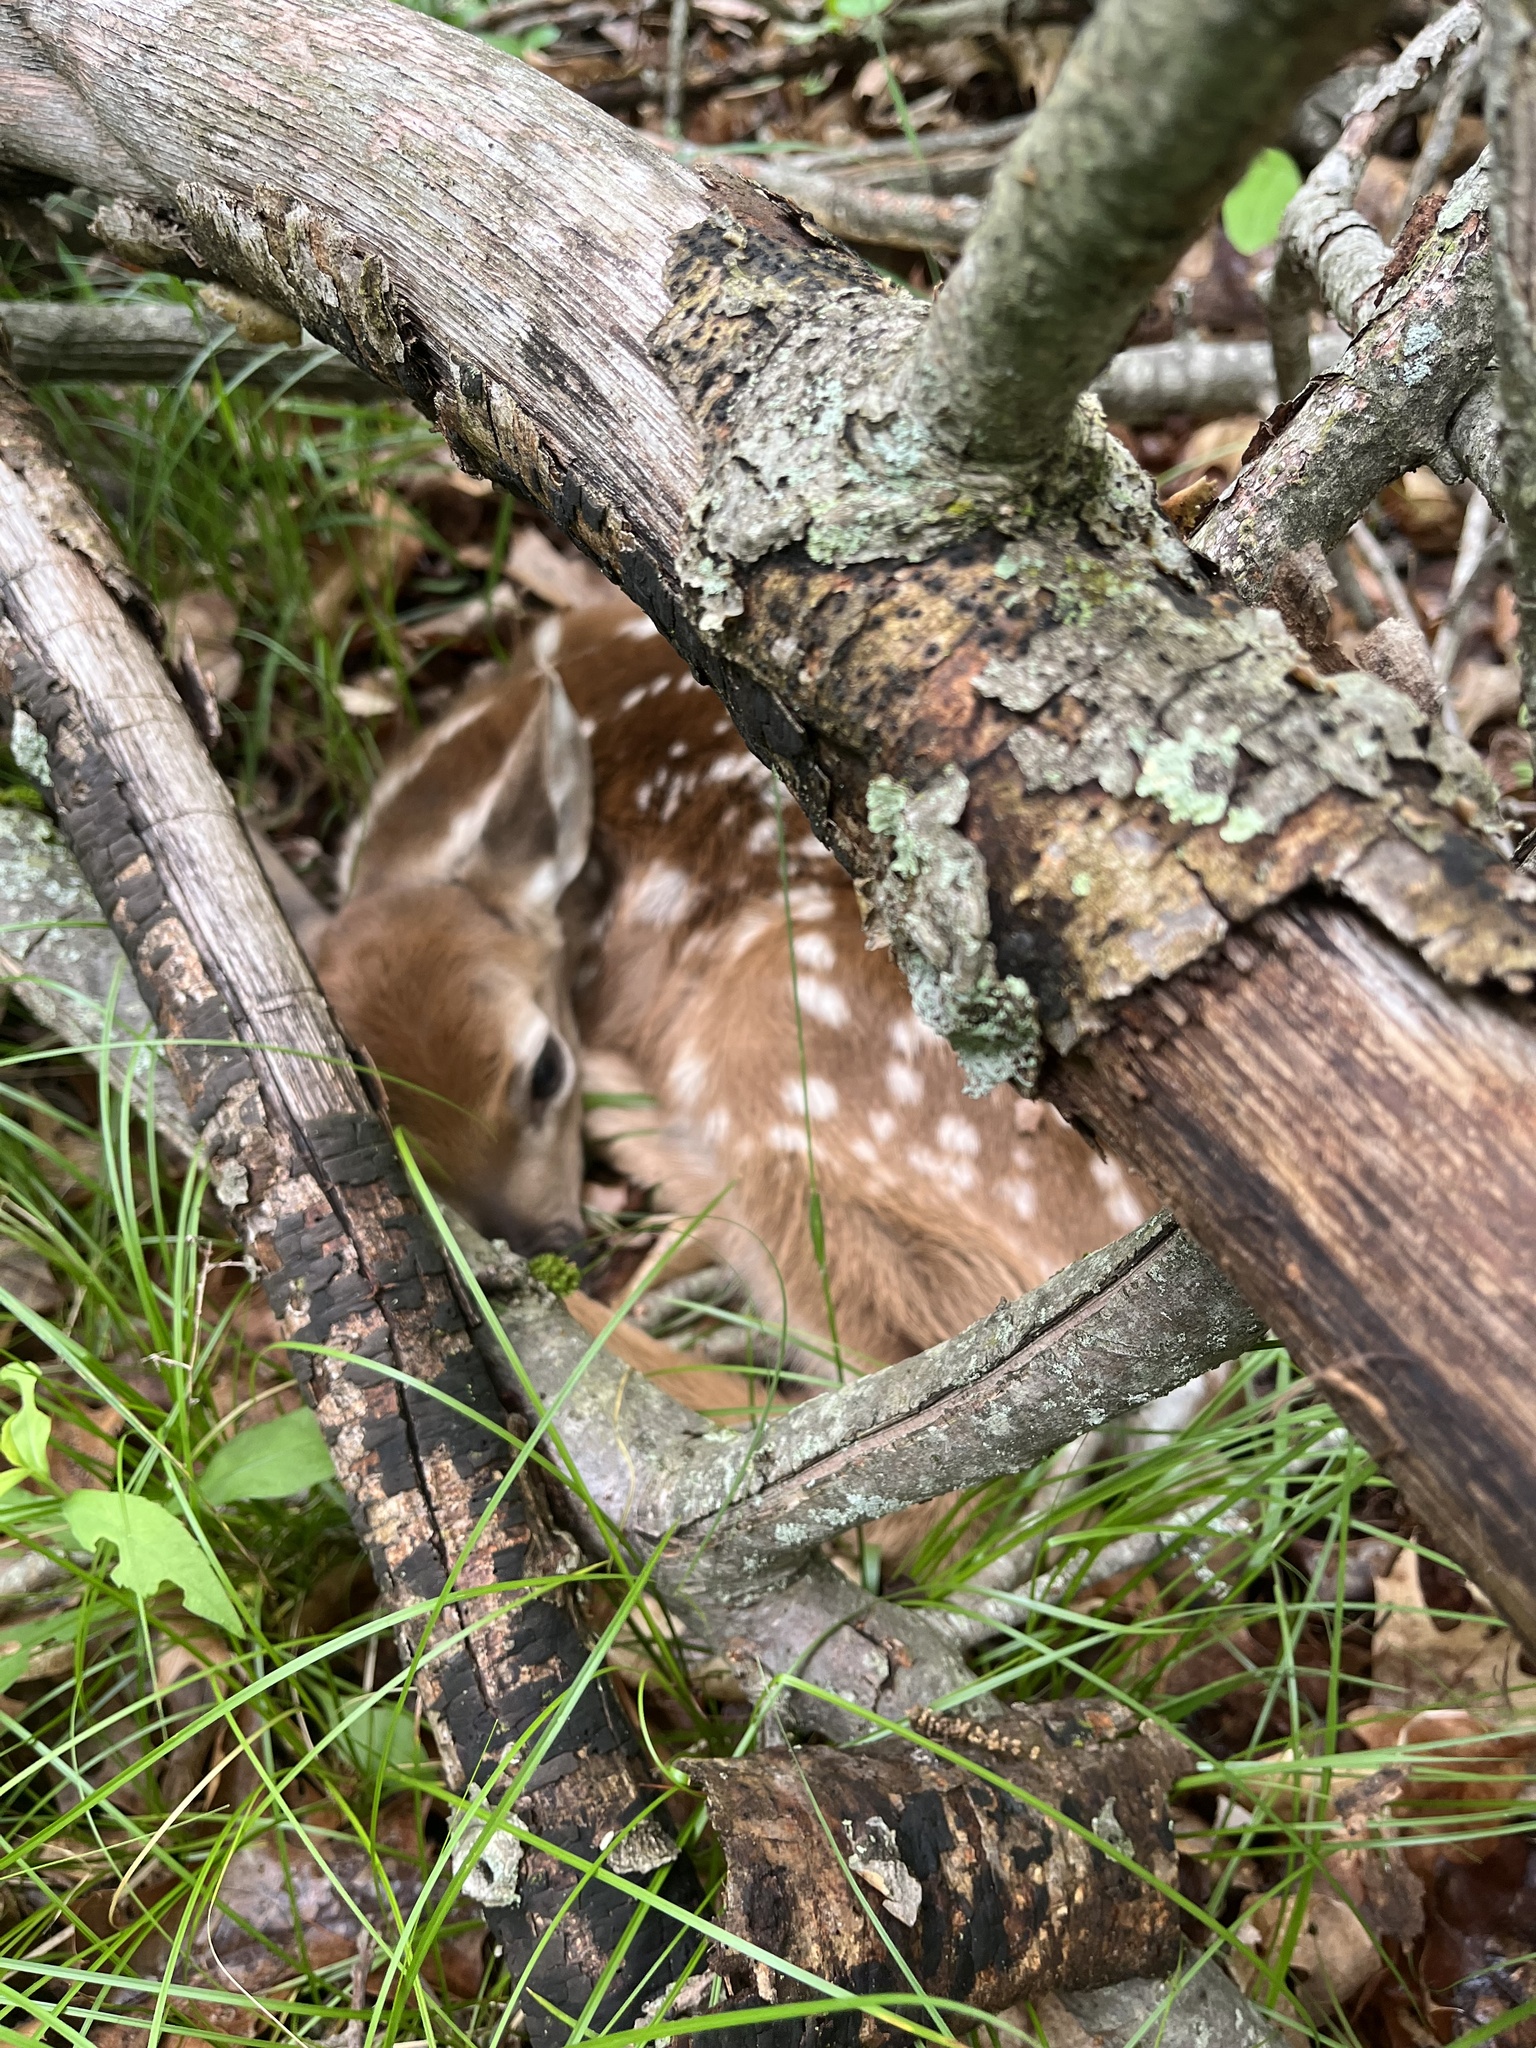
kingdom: Animalia
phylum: Chordata
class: Mammalia
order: Artiodactyla
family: Cervidae
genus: Odocoileus
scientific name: Odocoileus virginianus
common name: White-tailed deer
